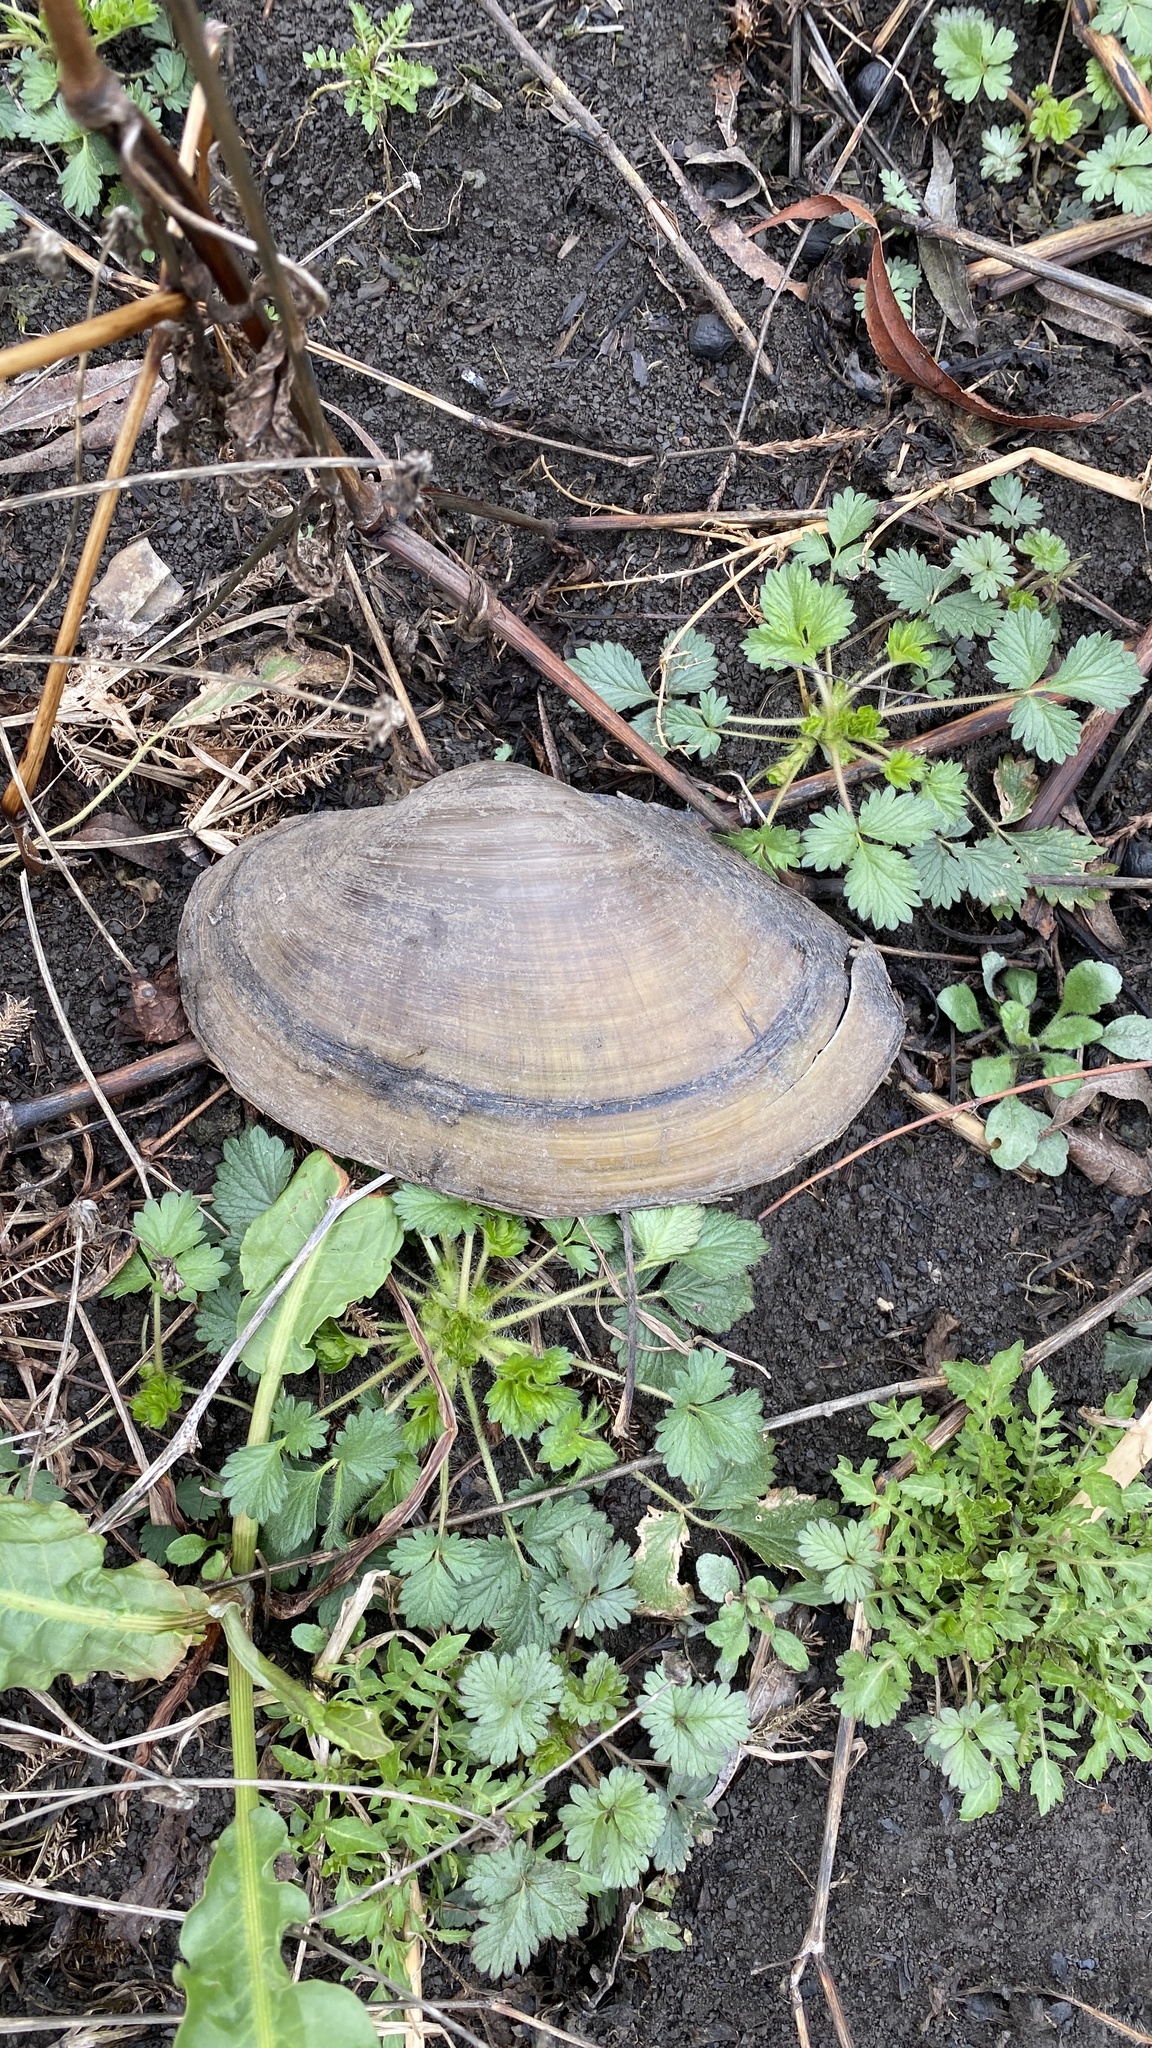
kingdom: Animalia
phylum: Mollusca
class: Bivalvia
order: Unionida
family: Unionidae
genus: Pyganodon
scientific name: Pyganodon grandis
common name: Giant floater
